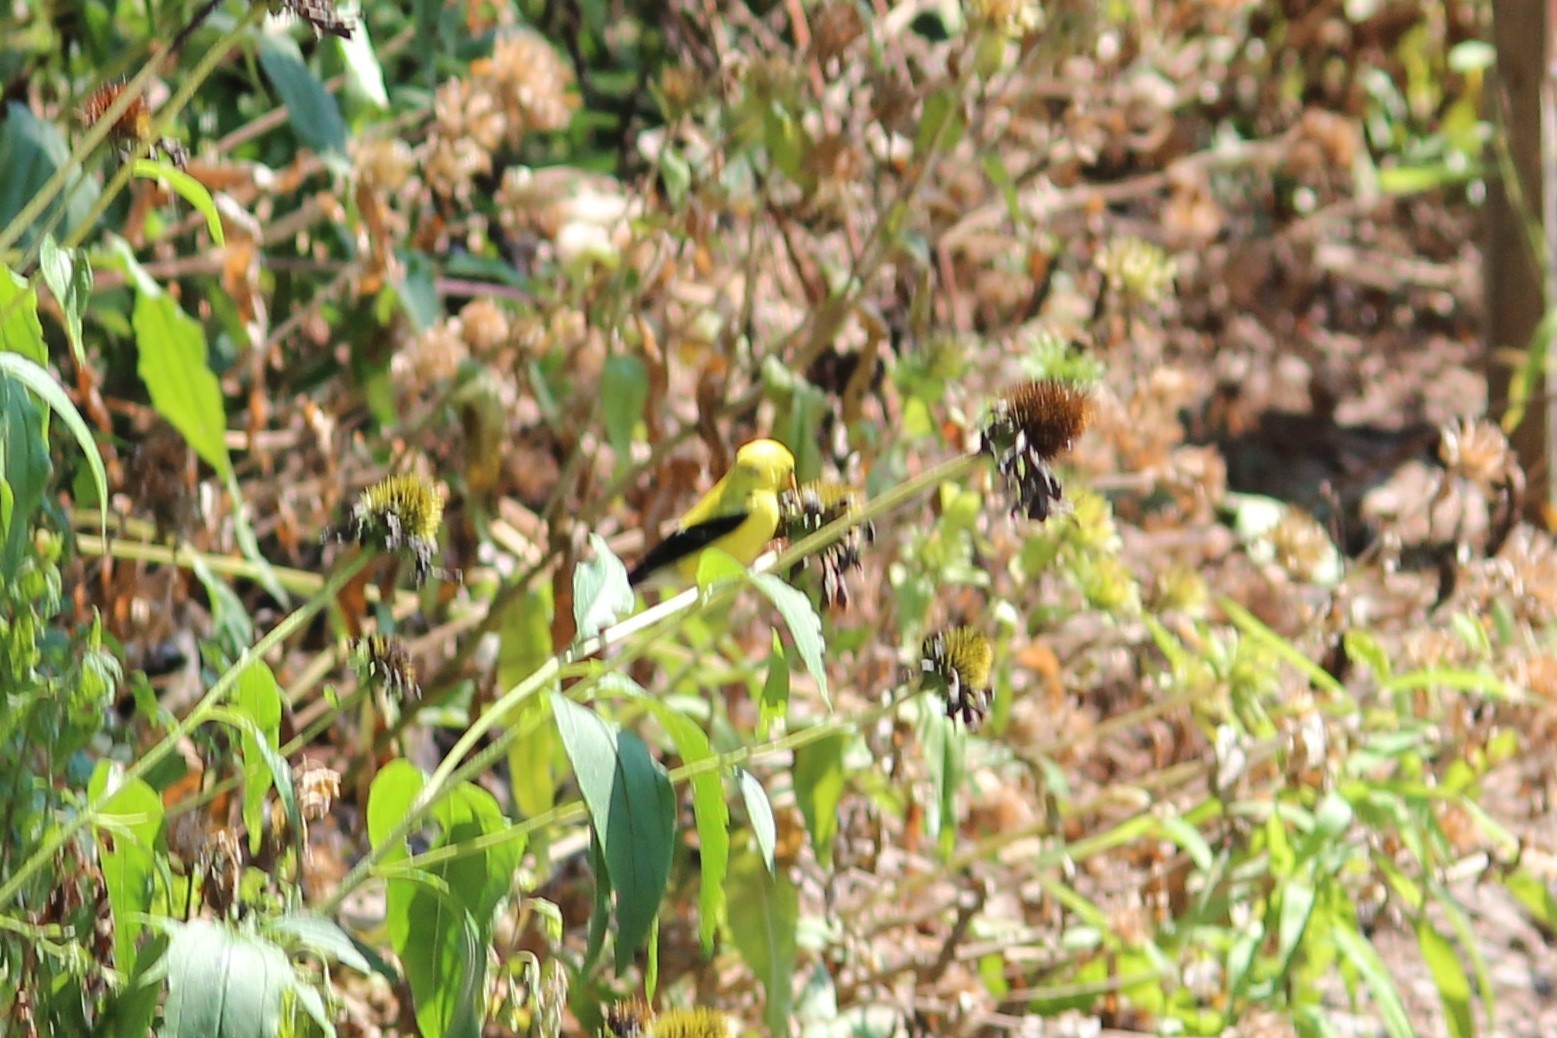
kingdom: Animalia
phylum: Chordata
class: Aves
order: Passeriformes
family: Fringillidae
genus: Spinus
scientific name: Spinus tristis
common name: American goldfinch
